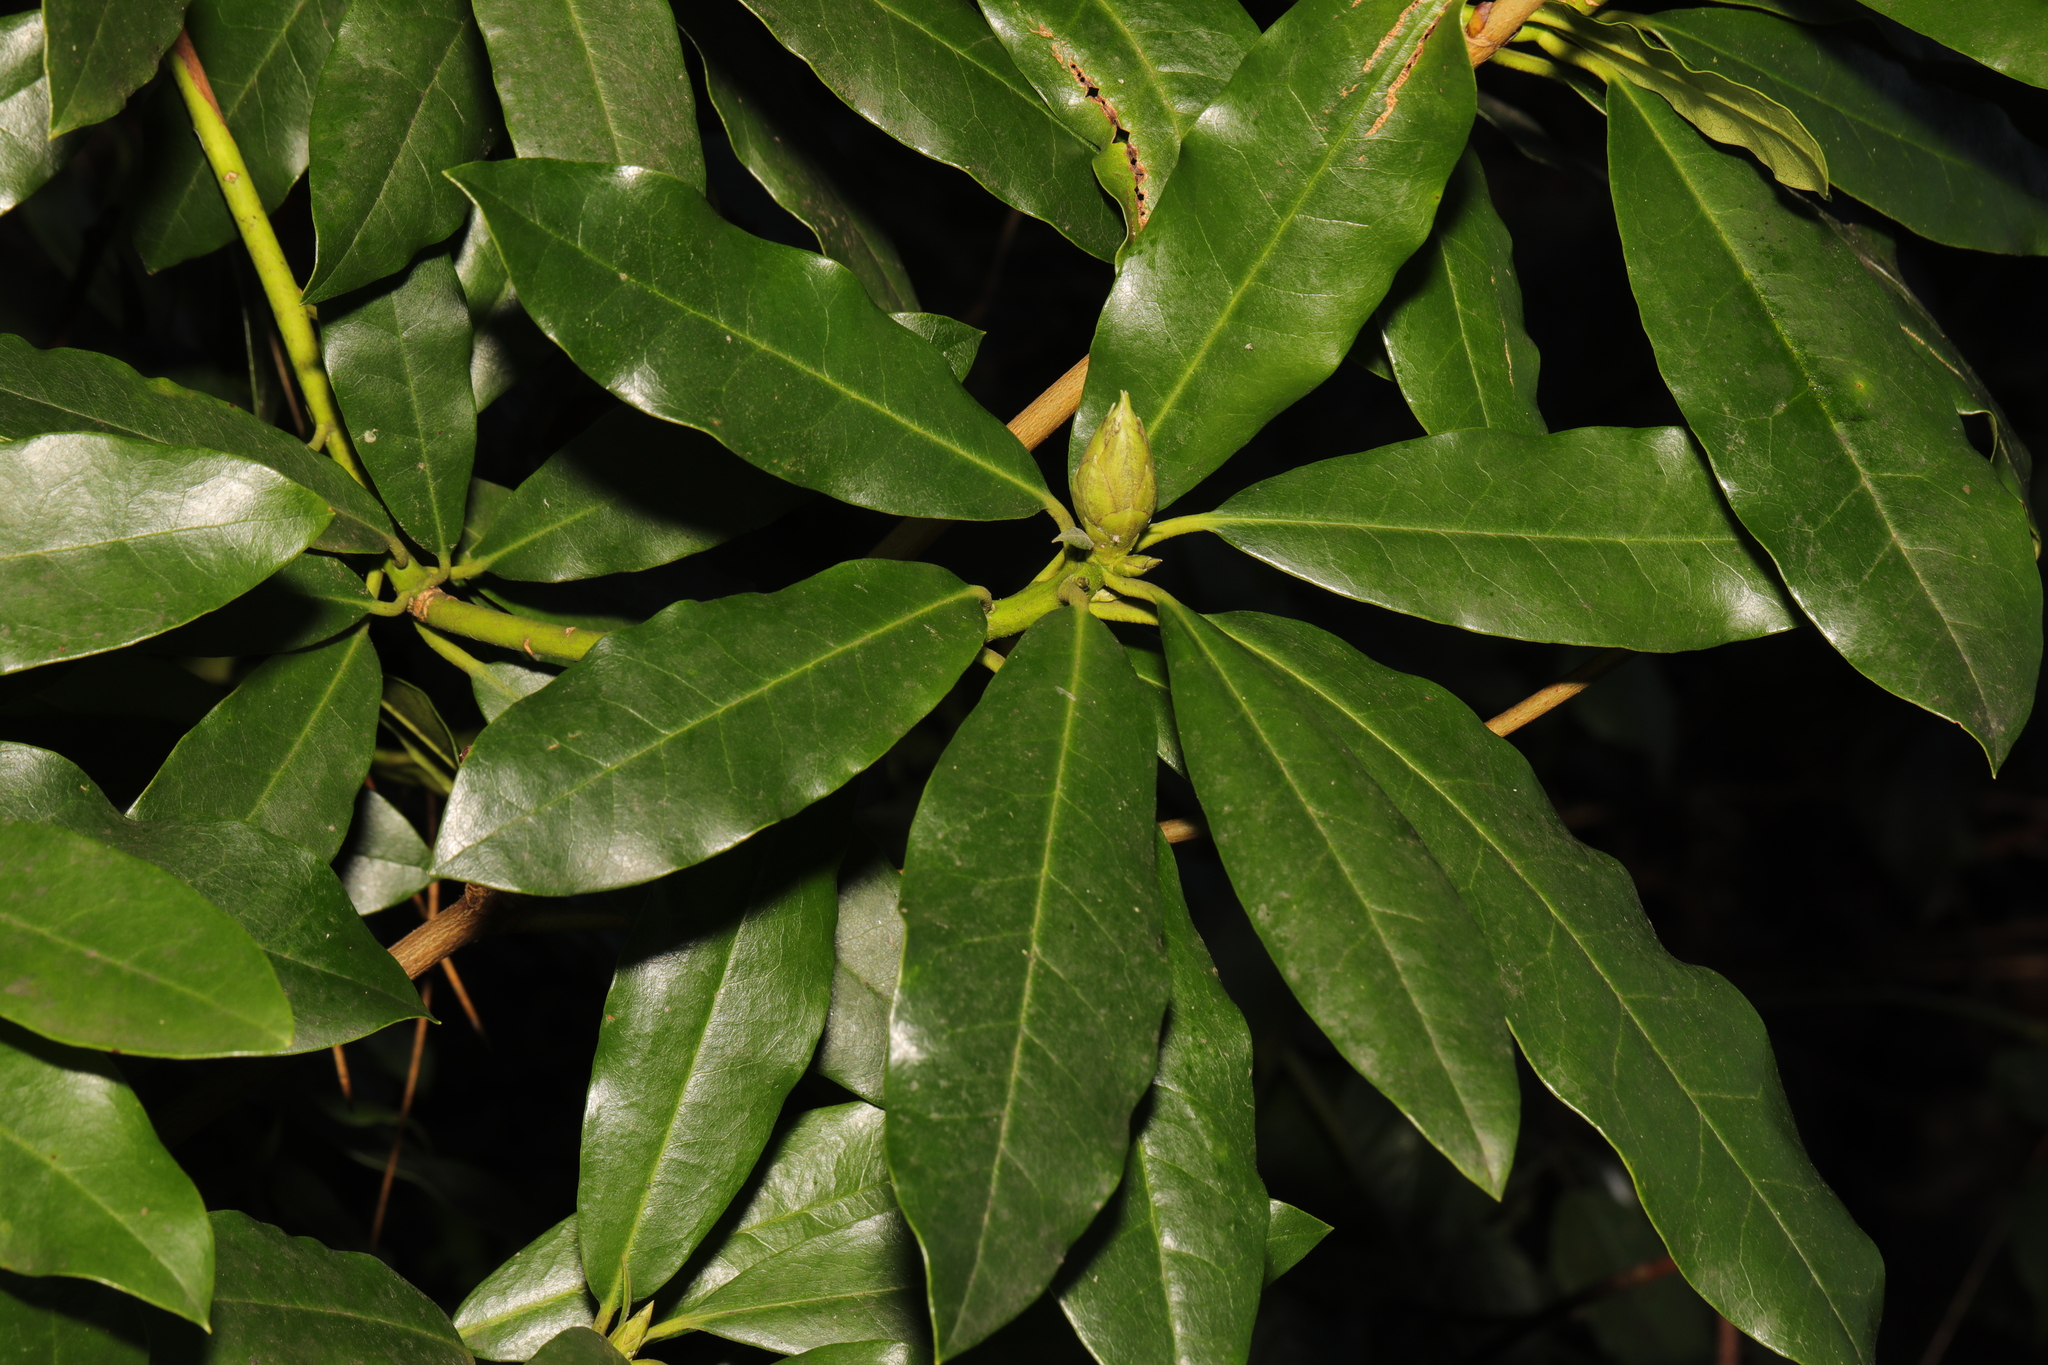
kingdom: Plantae
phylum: Tracheophyta
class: Magnoliopsida
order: Ericales
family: Ericaceae
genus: Rhododendron
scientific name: Rhododendron ponticum
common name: Rhododendron
